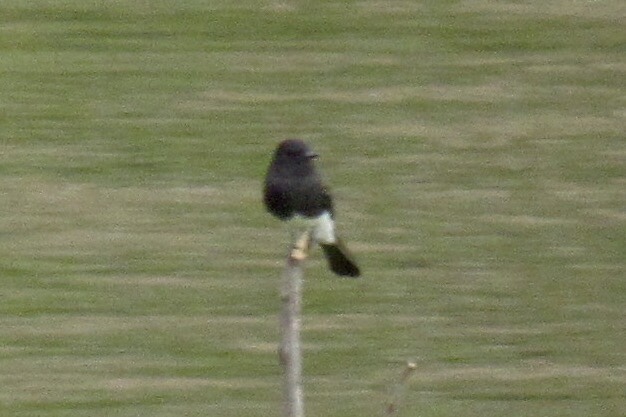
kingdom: Animalia
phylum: Chordata
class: Aves
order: Passeriformes
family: Tyrannidae
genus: Sayornis
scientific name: Sayornis nigricans
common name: Black phoebe
